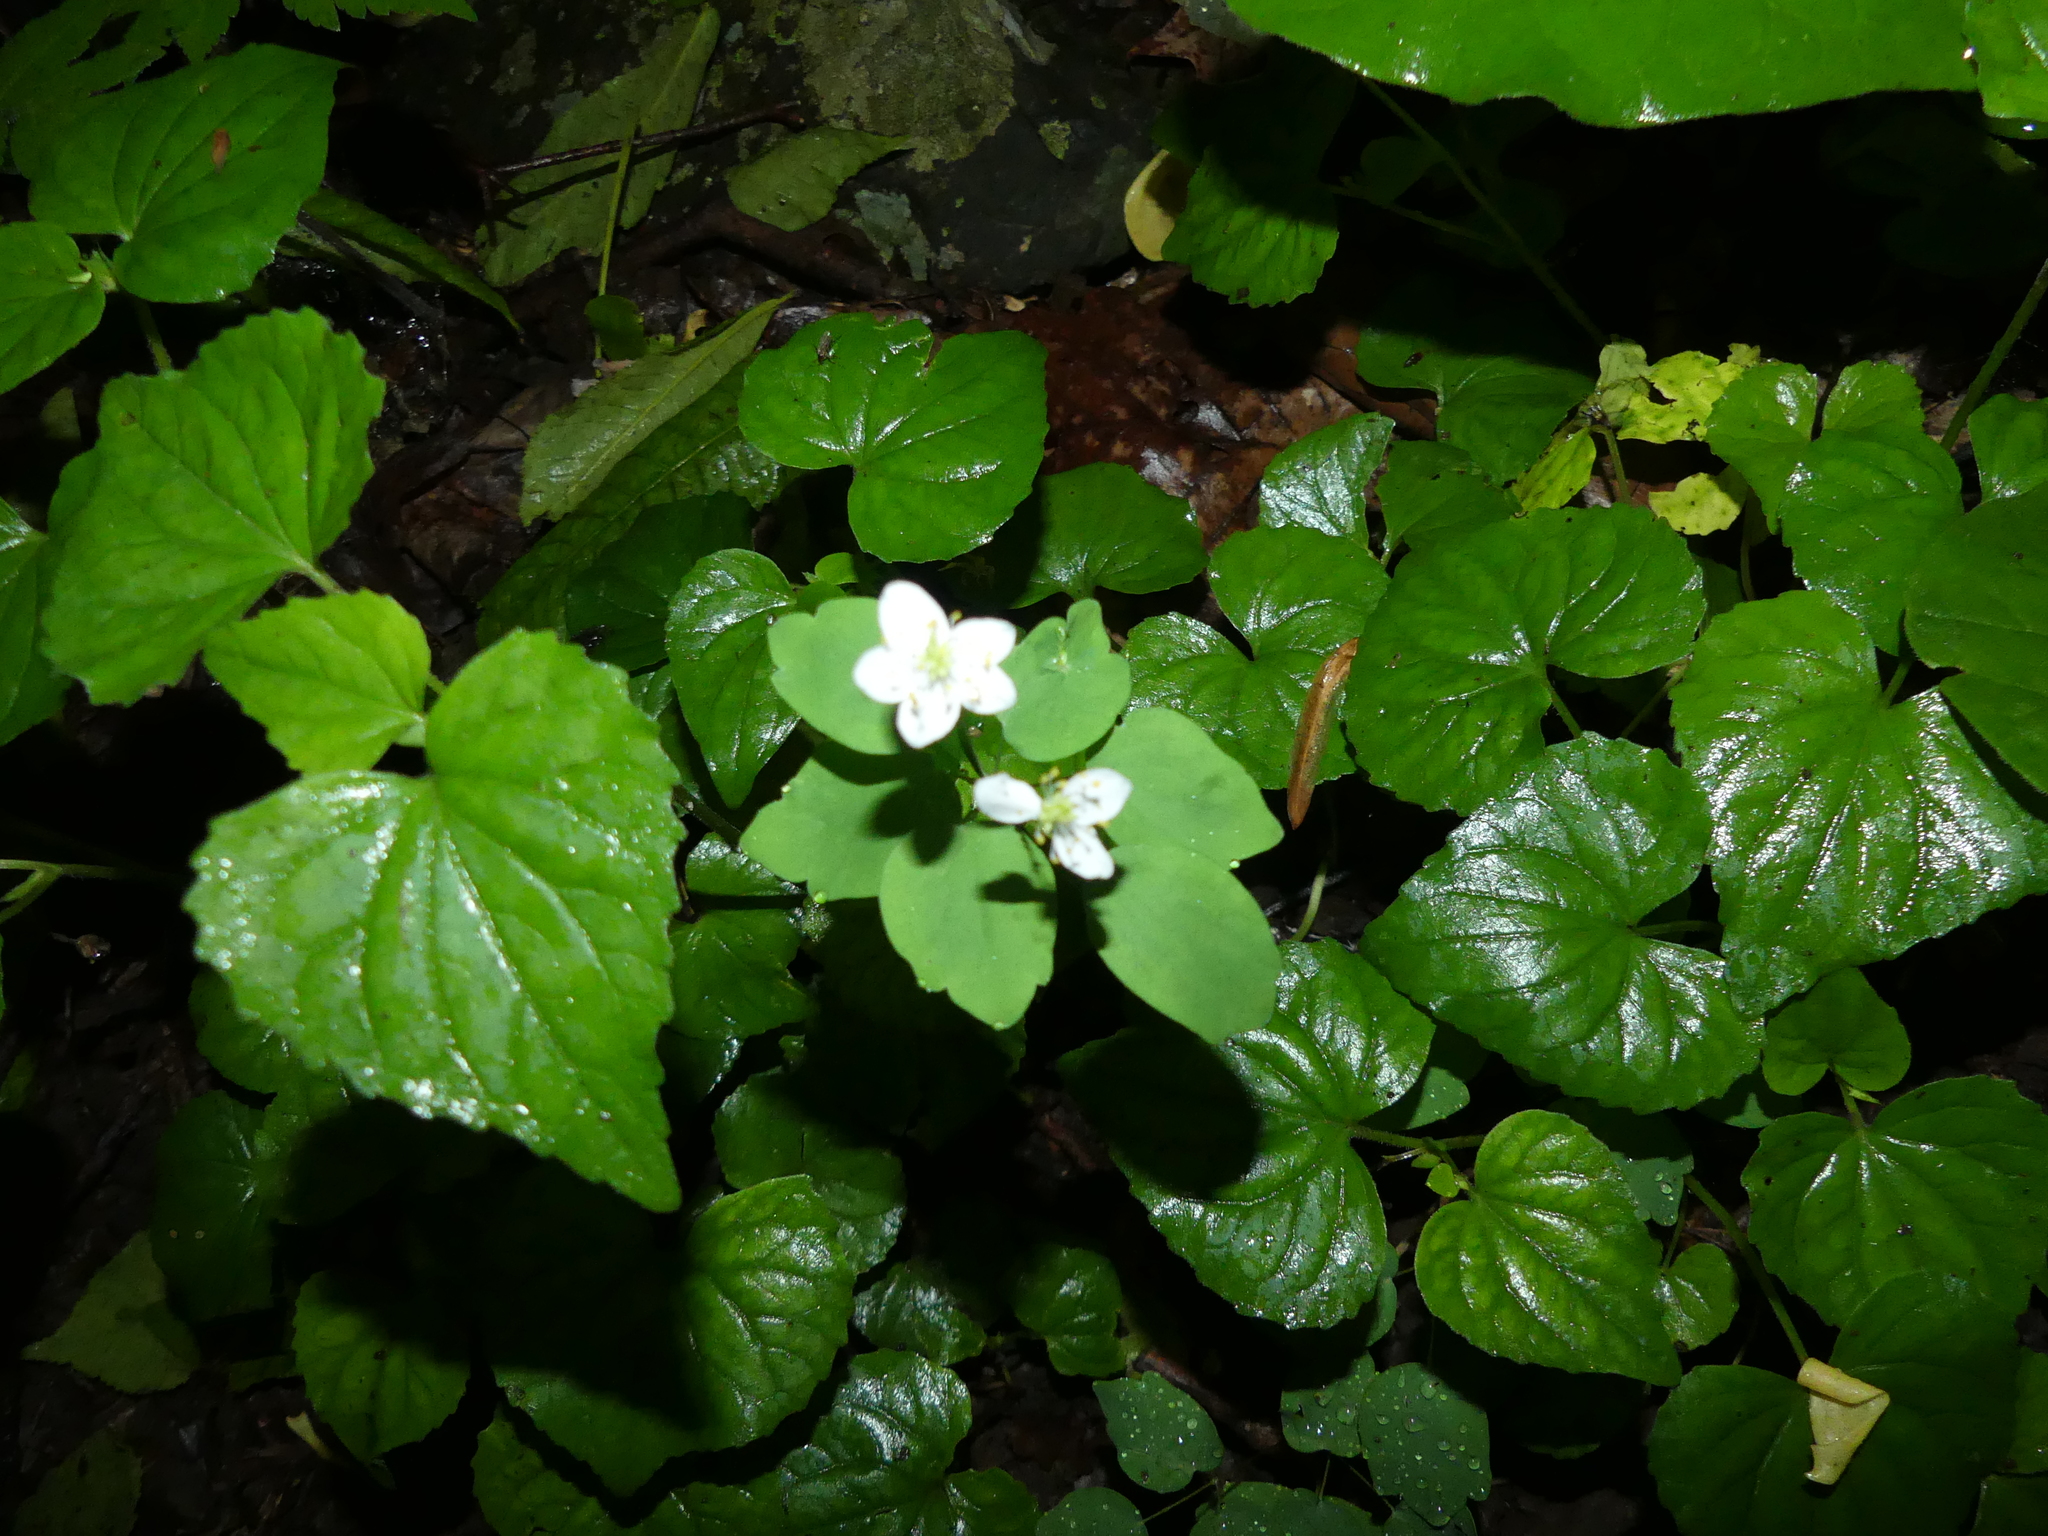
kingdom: Plantae
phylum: Tracheophyta
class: Magnoliopsida
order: Ranunculales
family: Ranunculaceae
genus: Thalictrum
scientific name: Thalictrum thalictroides
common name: Rue-anemone
